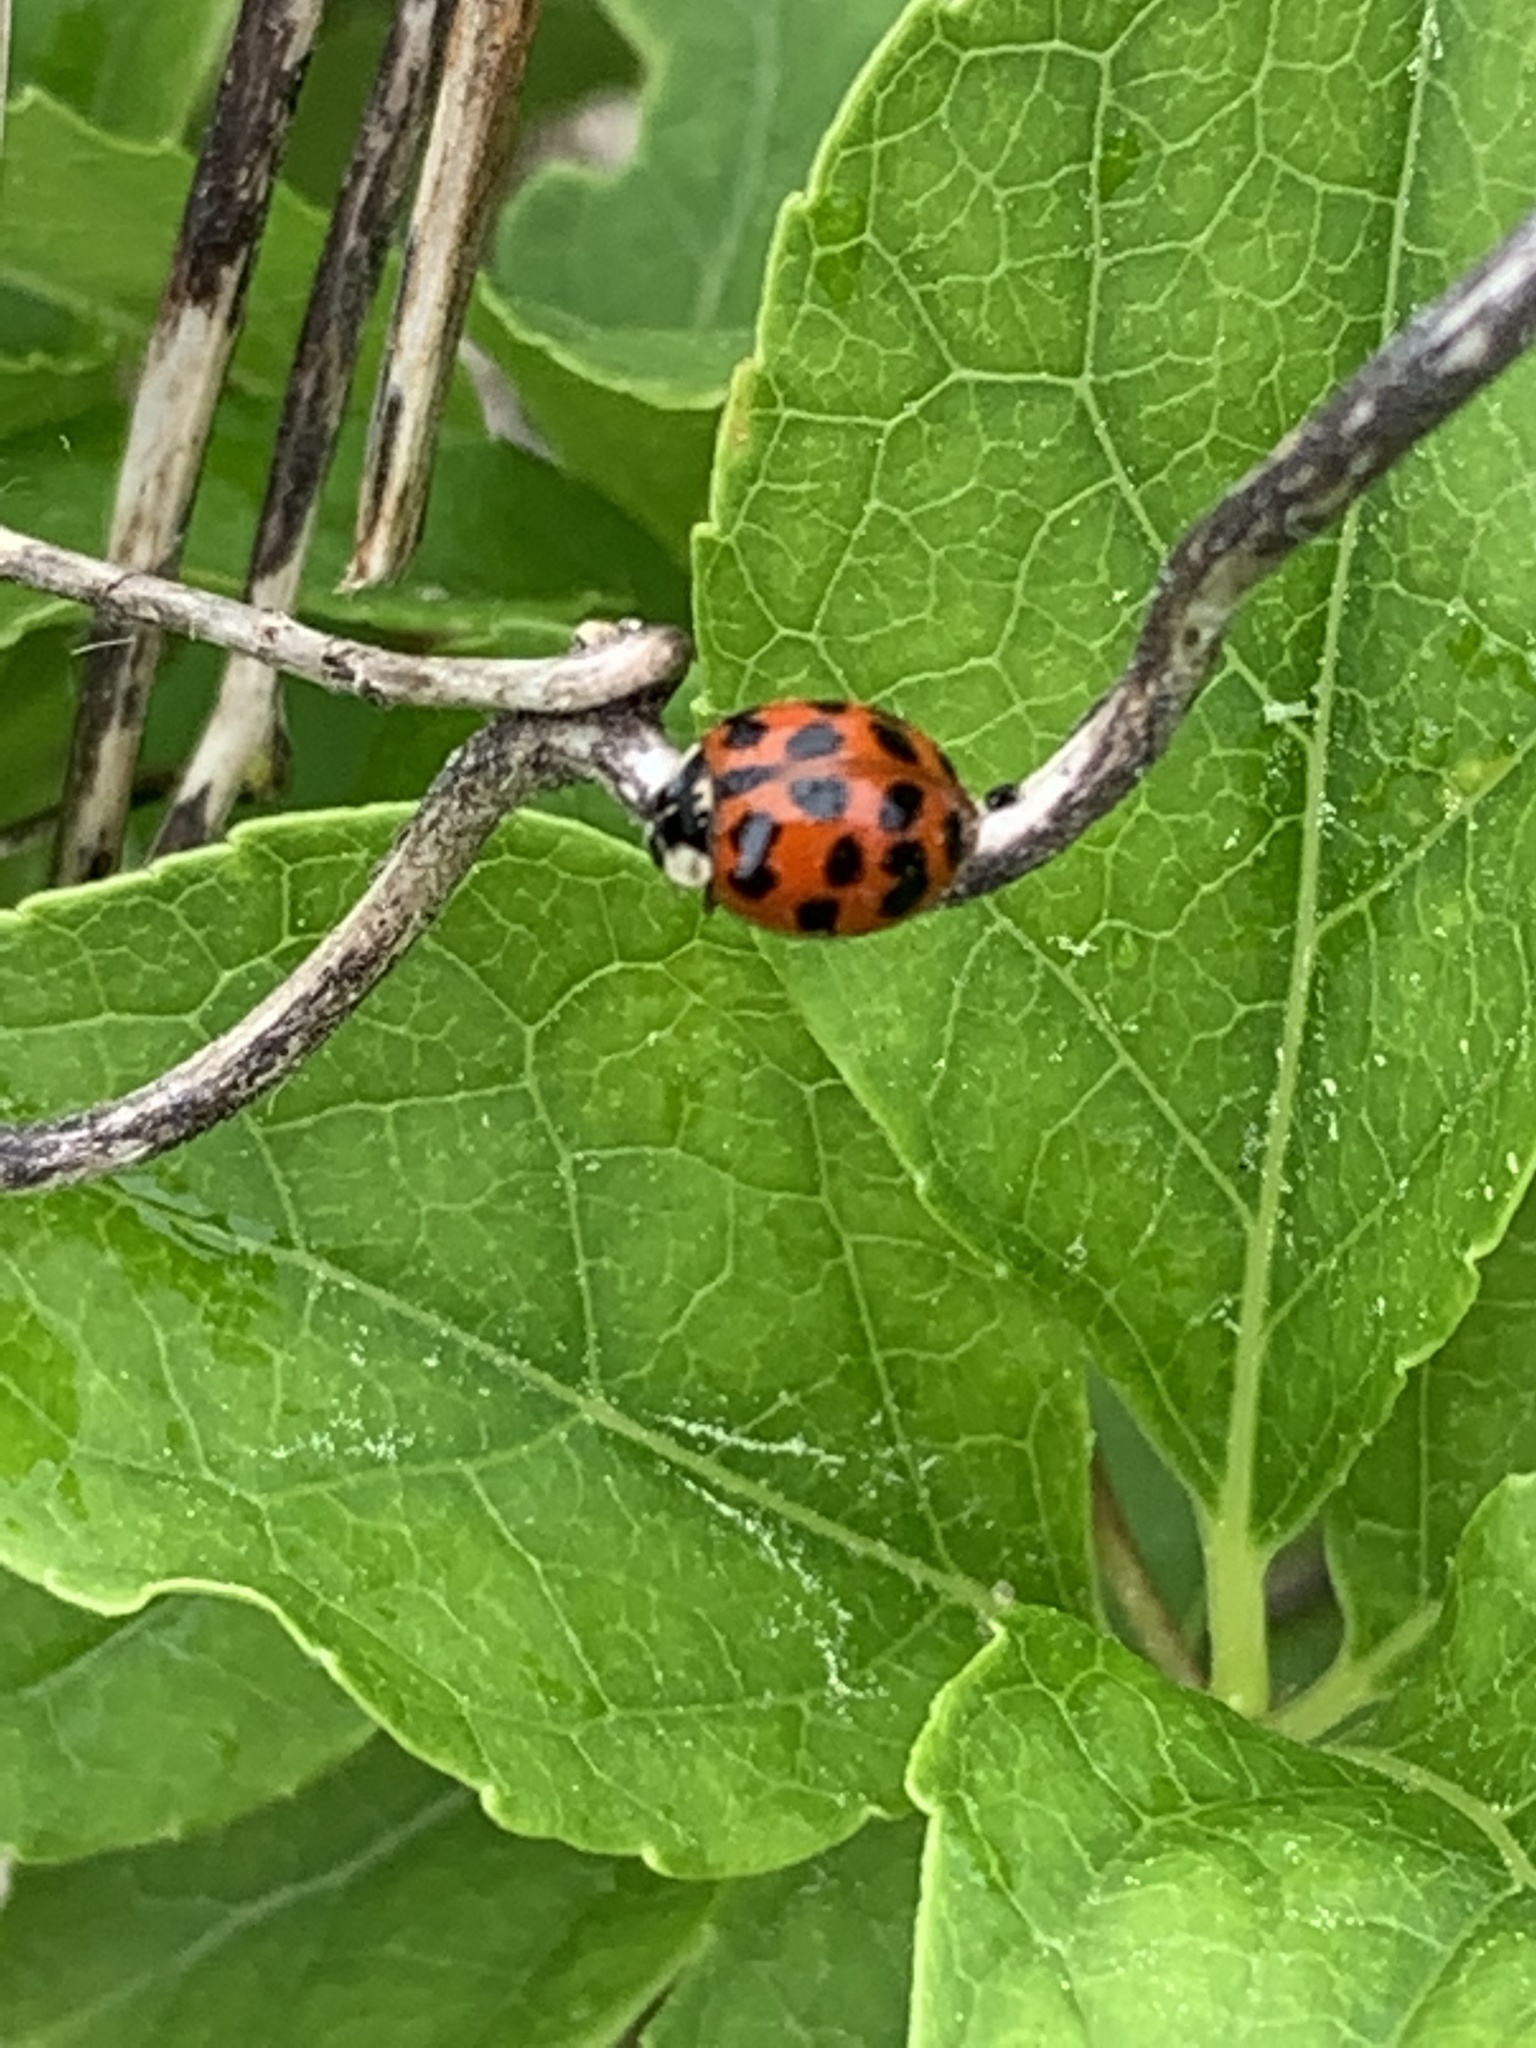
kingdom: Animalia
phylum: Arthropoda
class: Insecta
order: Coleoptera
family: Coccinellidae
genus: Harmonia
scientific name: Harmonia axyridis
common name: Harlequin ladybird
